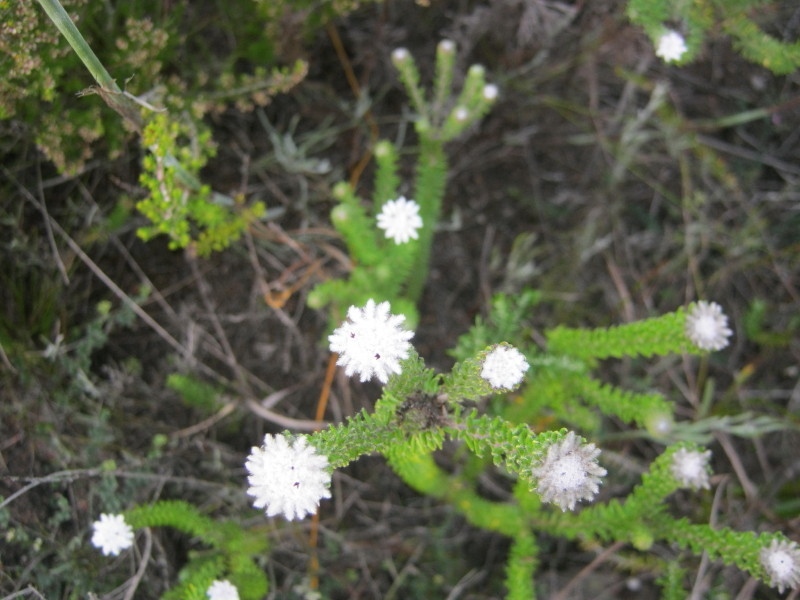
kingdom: Plantae
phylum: Tracheophyta
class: Magnoliopsida
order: Rosales
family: Rhamnaceae
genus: Phylica
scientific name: Phylica curvifolia
